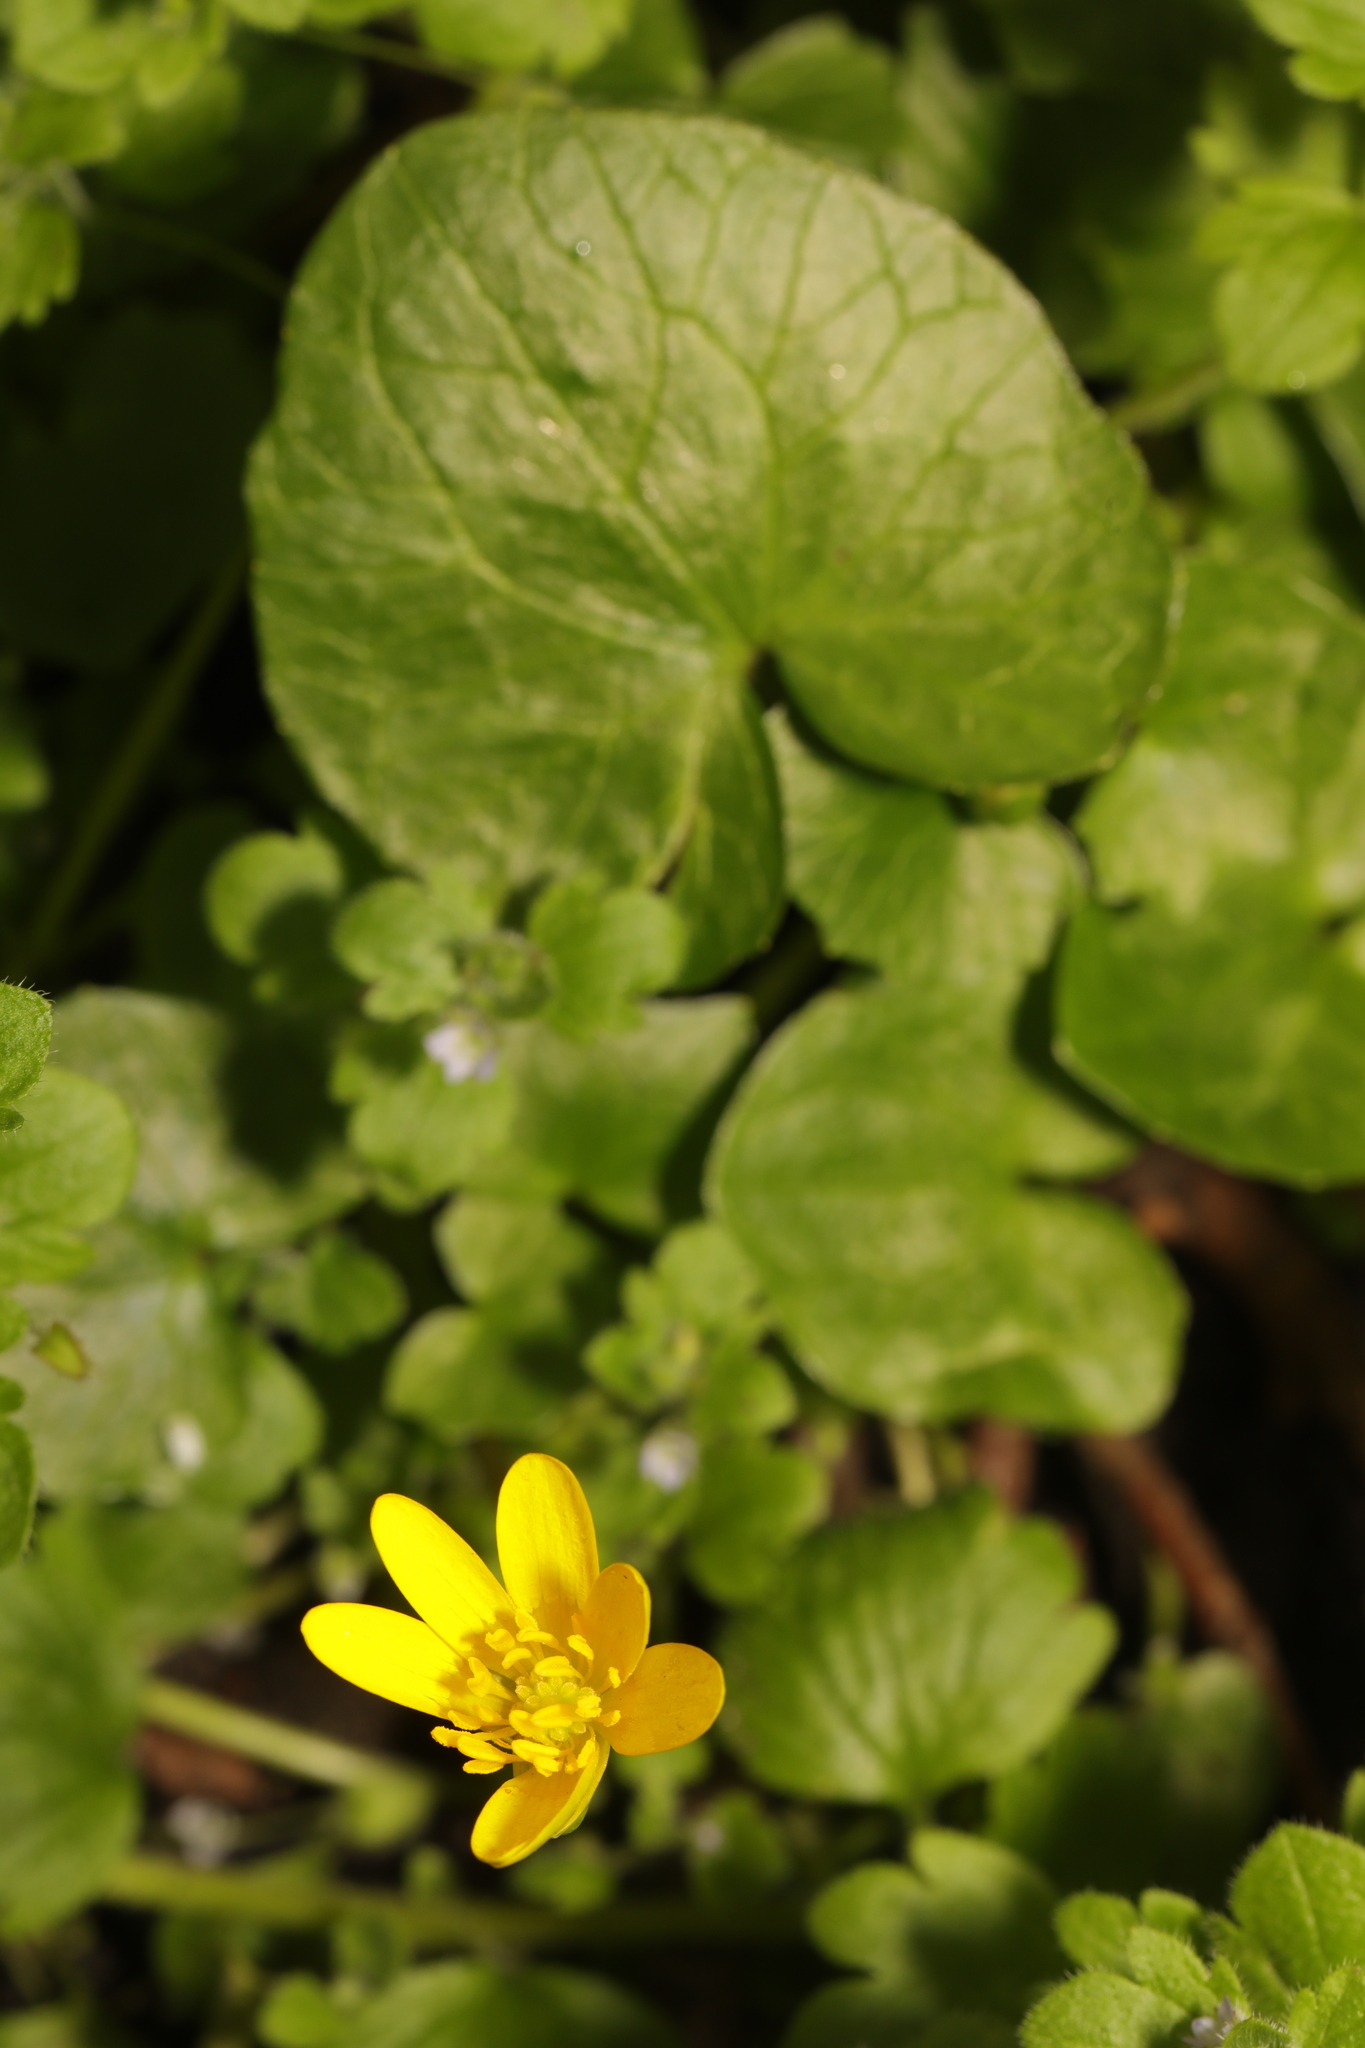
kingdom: Plantae
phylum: Tracheophyta
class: Magnoliopsida
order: Ranunculales
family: Ranunculaceae
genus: Ficaria
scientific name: Ficaria verna
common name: Lesser celandine
